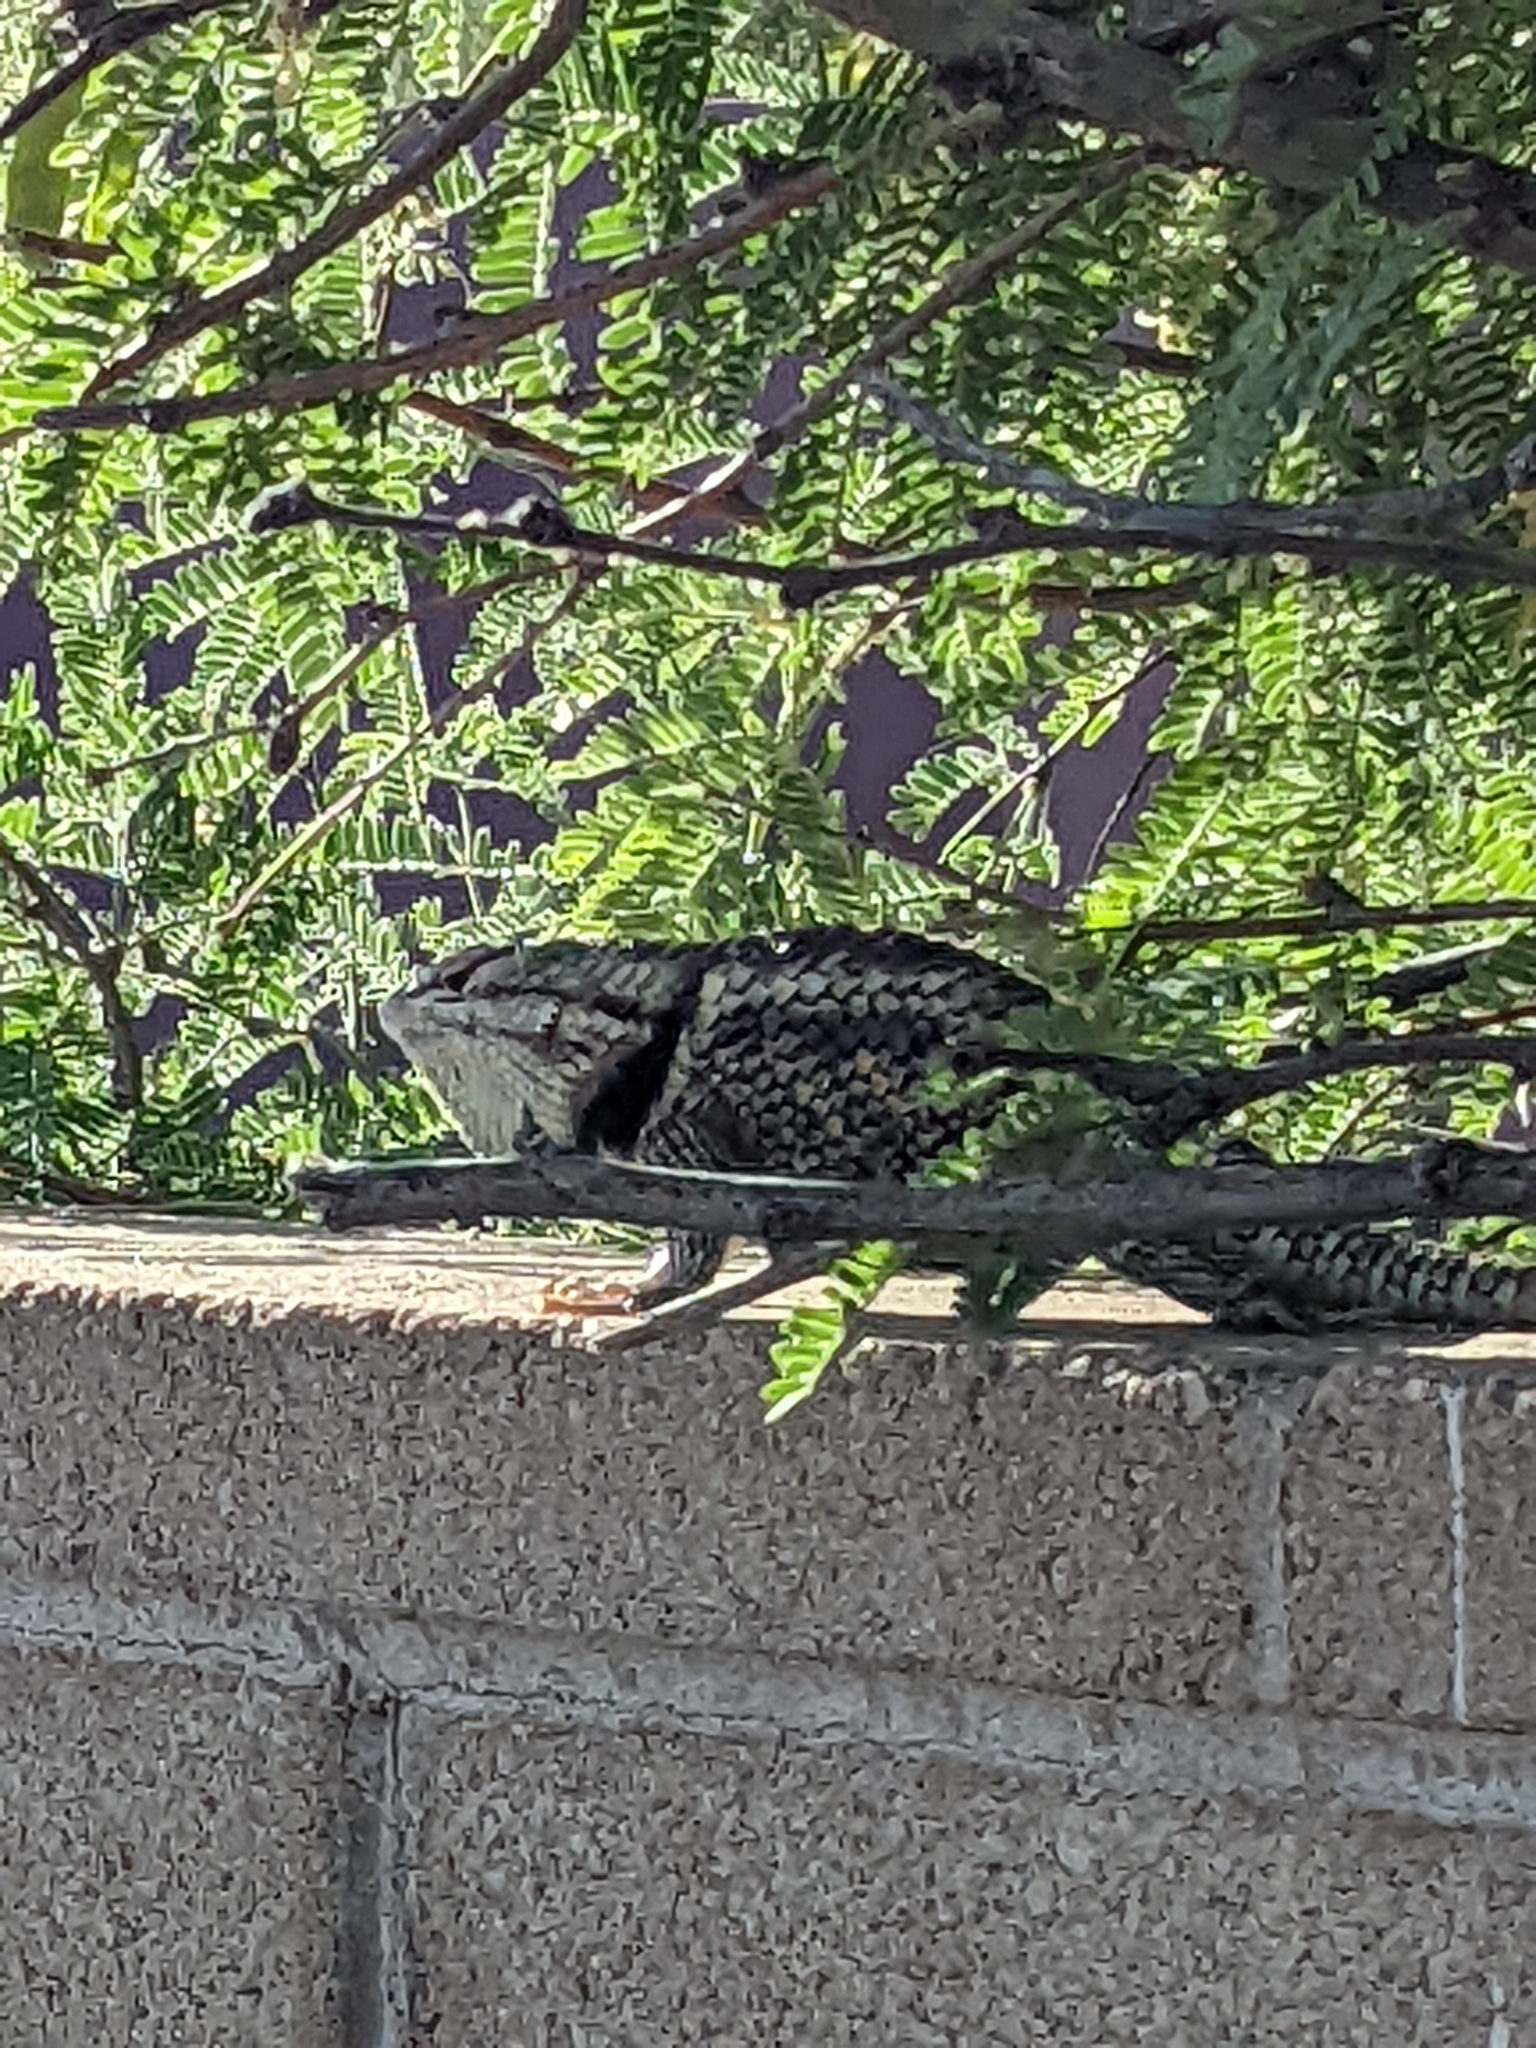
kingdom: Animalia
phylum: Chordata
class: Squamata
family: Phrynosomatidae
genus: Sceloporus
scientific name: Sceloporus magister
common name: Desert spiny lizard
